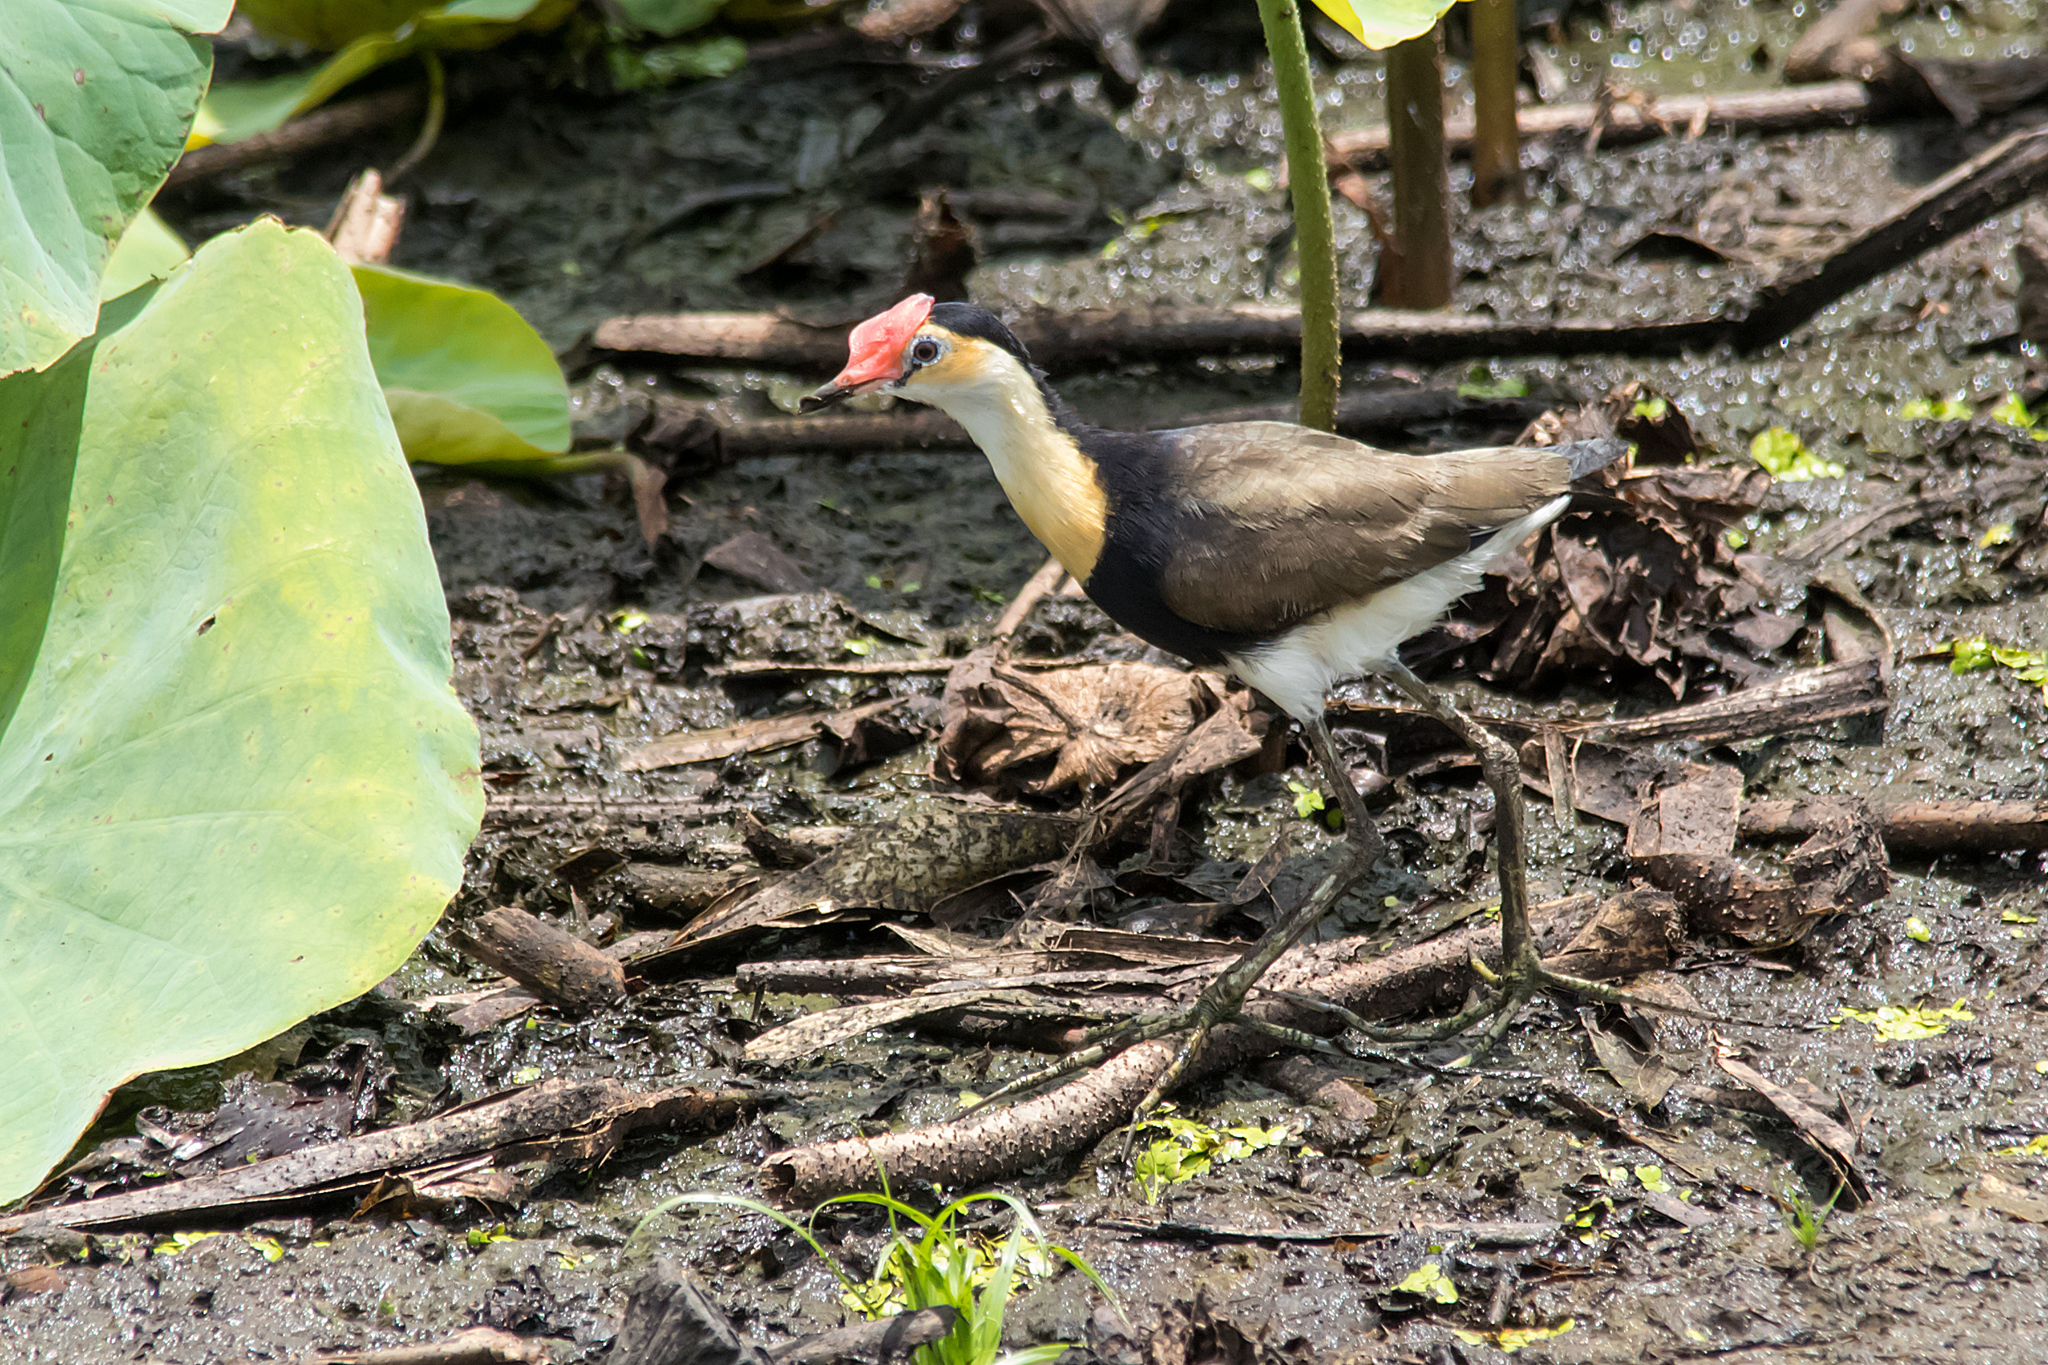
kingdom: Animalia
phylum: Chordata
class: Aves
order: Charadriiformes
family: Jacanidae
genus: Irediparra
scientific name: Irediparra gallinacea
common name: Comb-crested jacana
